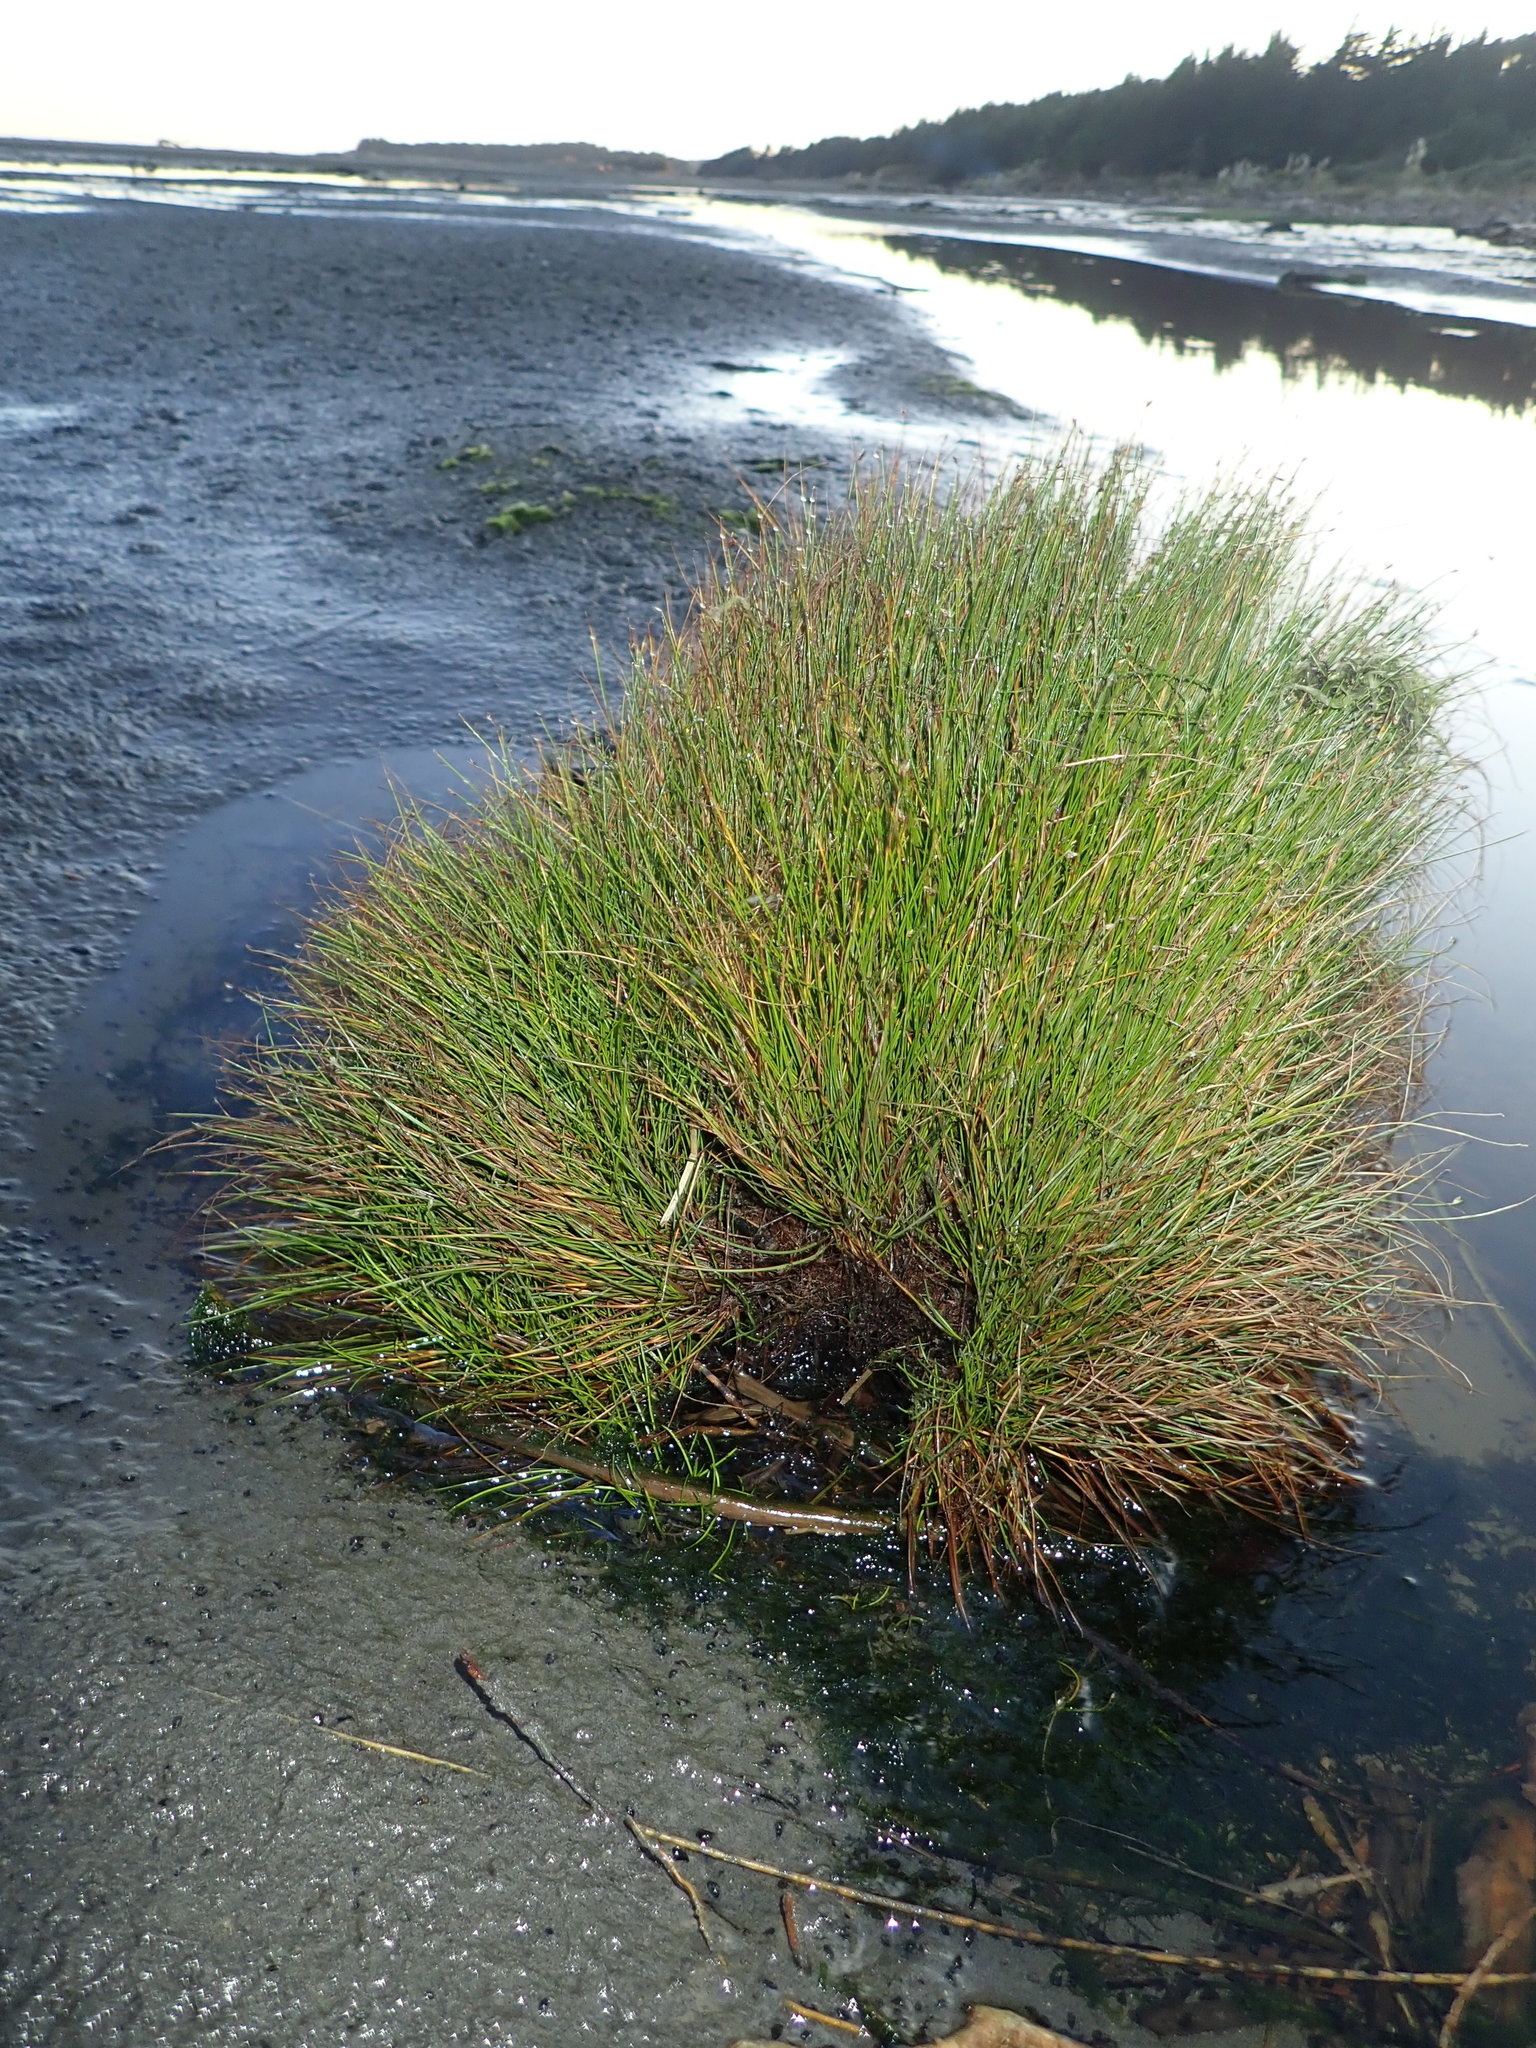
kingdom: Plantae
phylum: Tracheophyta
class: Liliopsida
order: Poales
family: Cyperaceae
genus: Isolepis
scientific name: Isolepis cernua
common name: Slender club-rush
